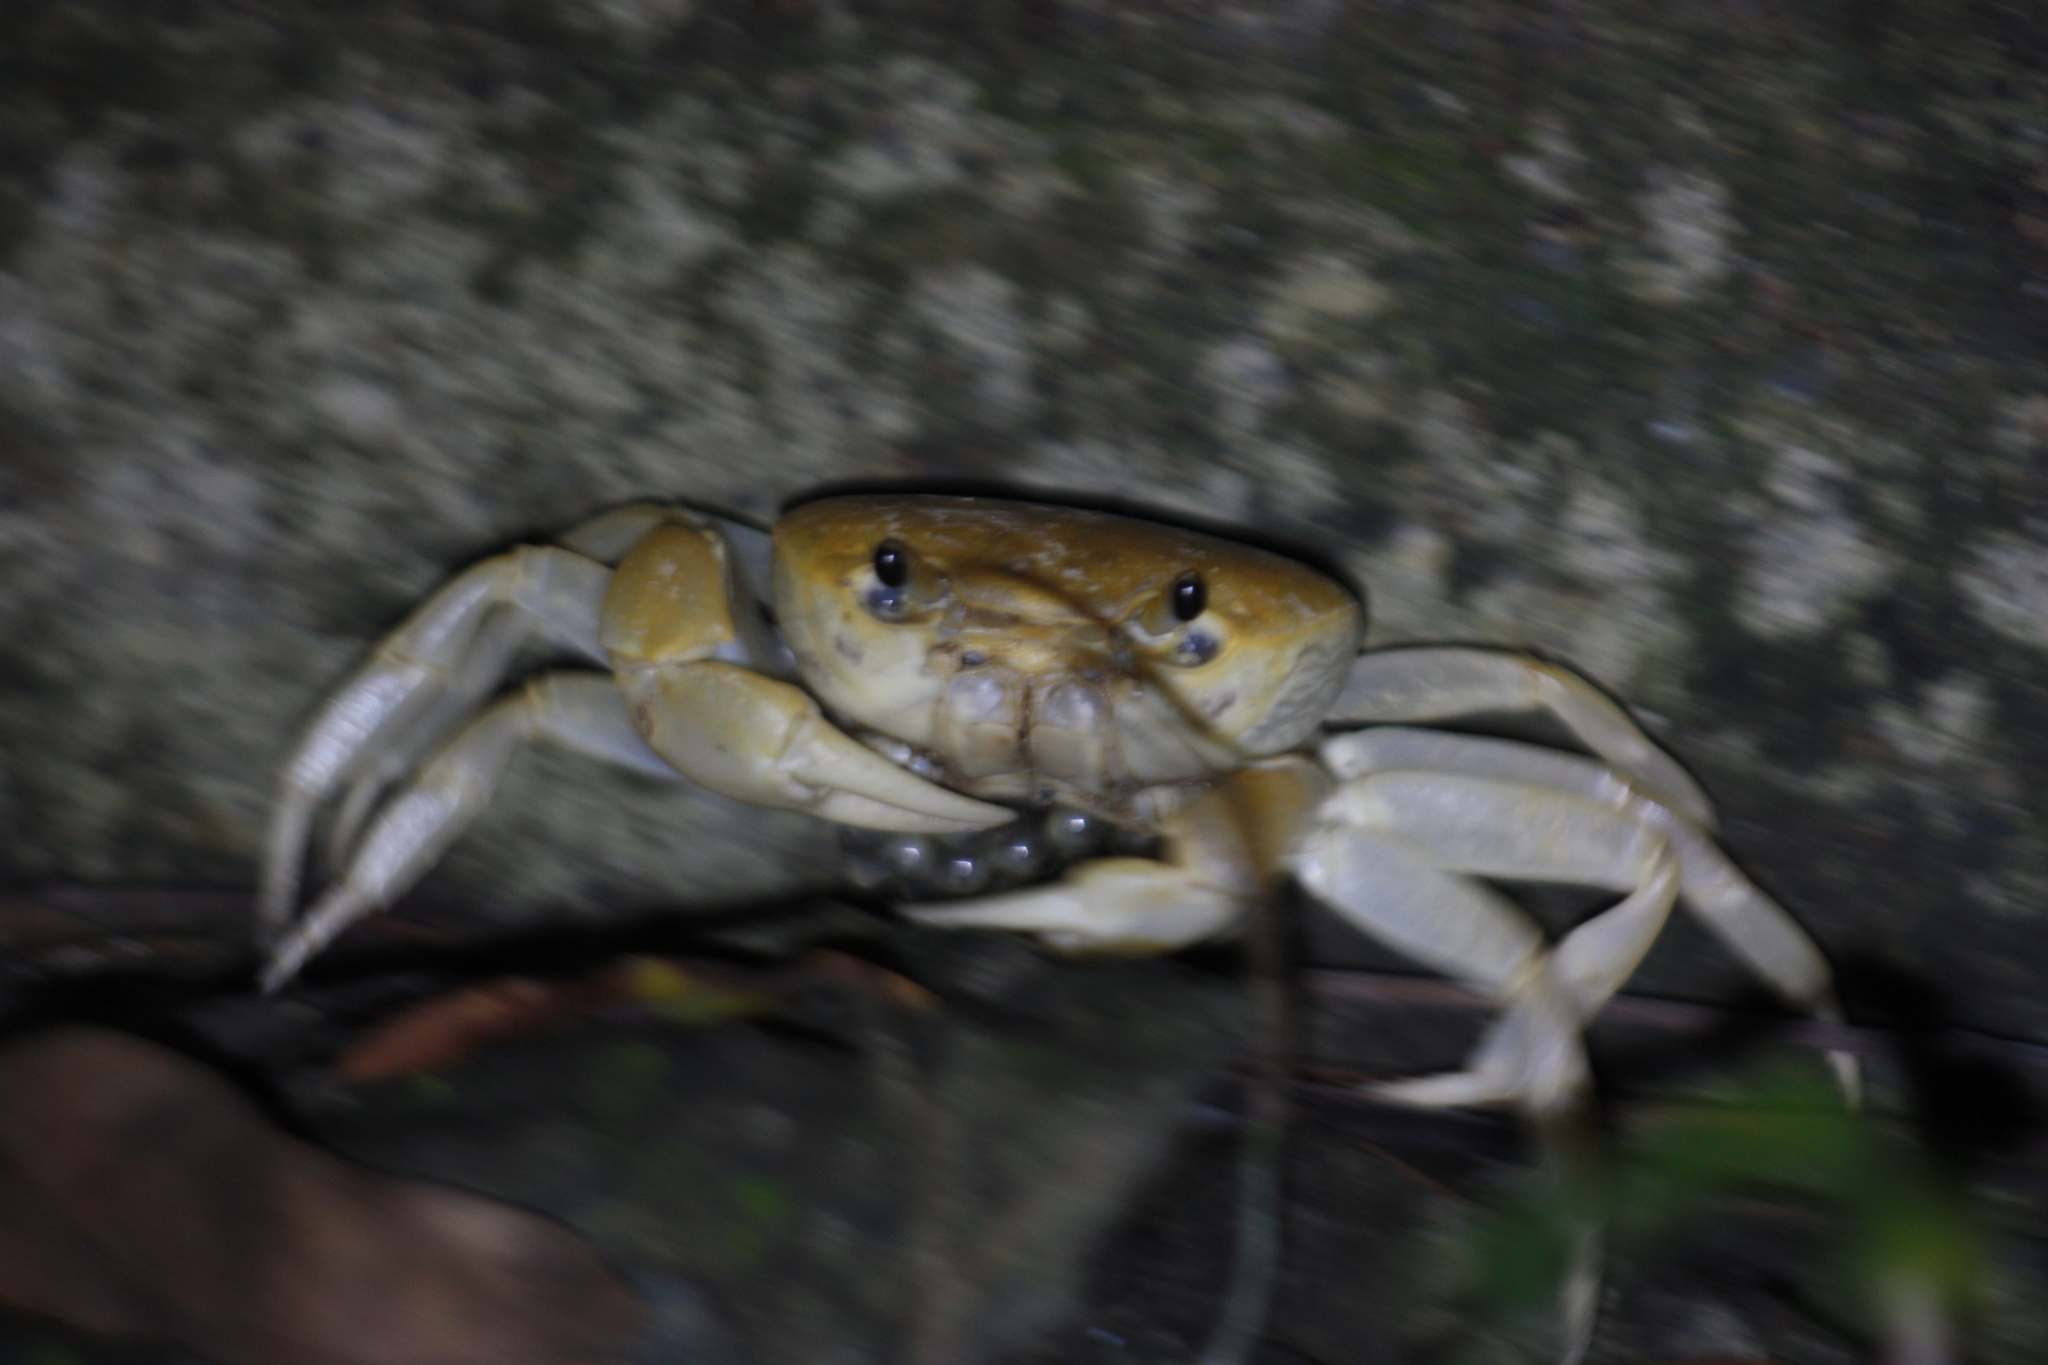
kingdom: Animalia
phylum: Arthropoda
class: Malacostraca
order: Decapoda
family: Potamidae
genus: Geothelphusa
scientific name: Geothelphusa makatao
